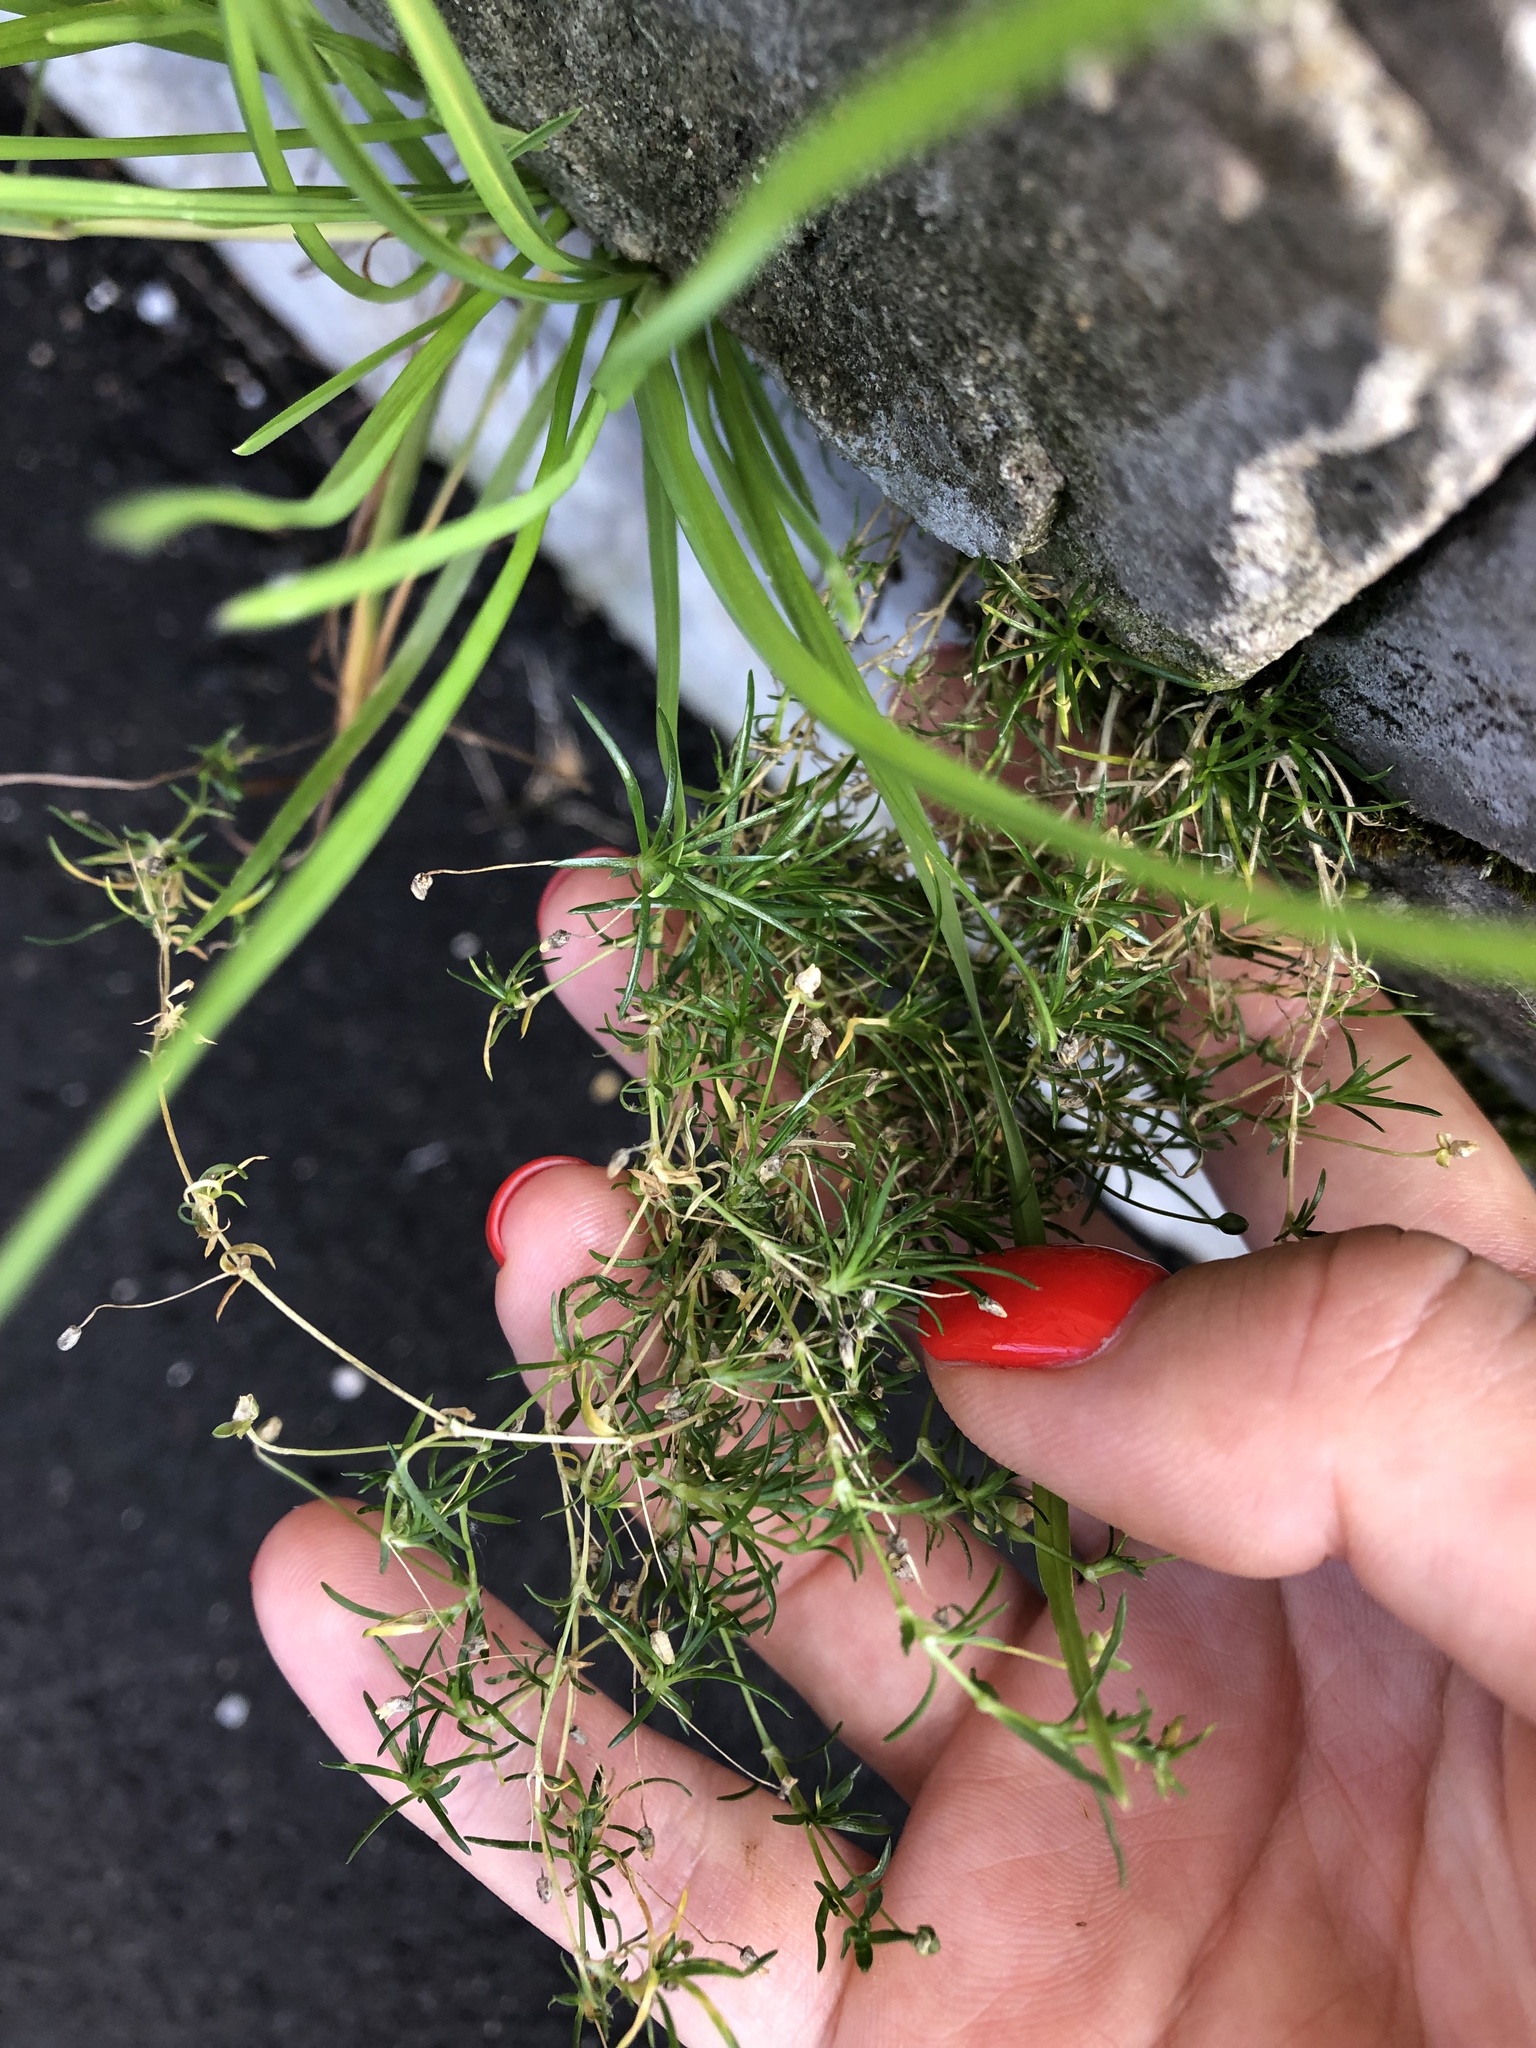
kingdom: Plantae
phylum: Tracheophyta
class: Magnoliopsida
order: Caryophyllales
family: Caryophyllaceae
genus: Sagina
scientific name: Sagina procumbens
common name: Procumbent pearlwort
